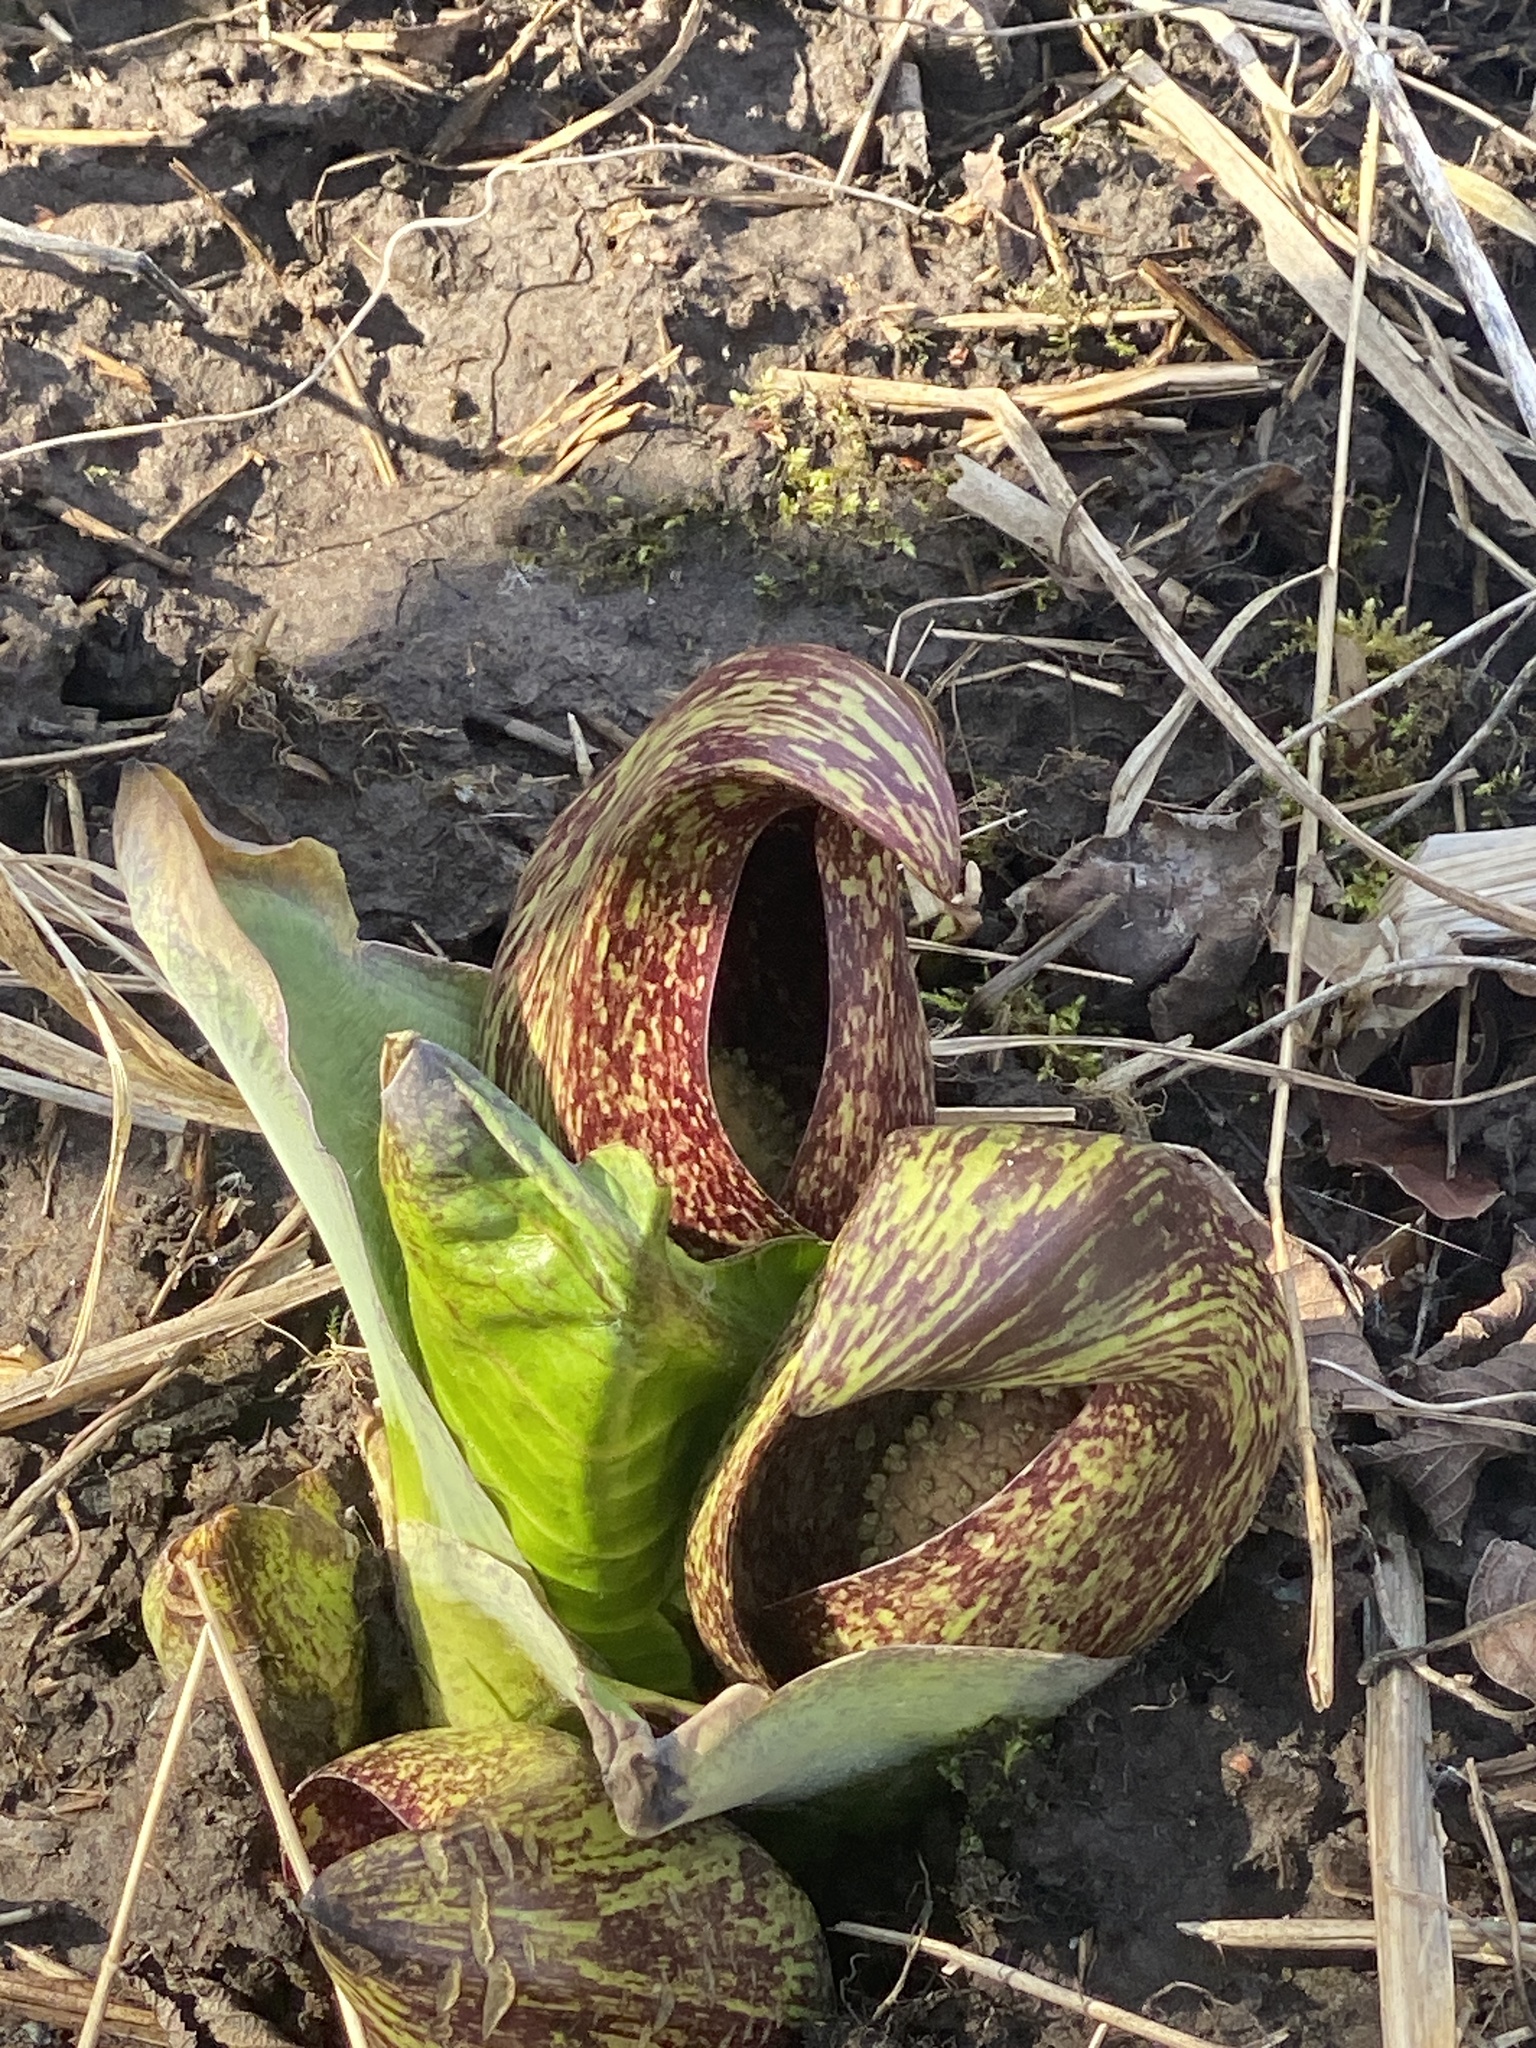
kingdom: Plantae
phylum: Tracheophyta
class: Liliopsida
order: Alismatales
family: Araceae
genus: Symplocarpus
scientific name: Symplocarpus foetidus
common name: Eastern skunk cabbage
